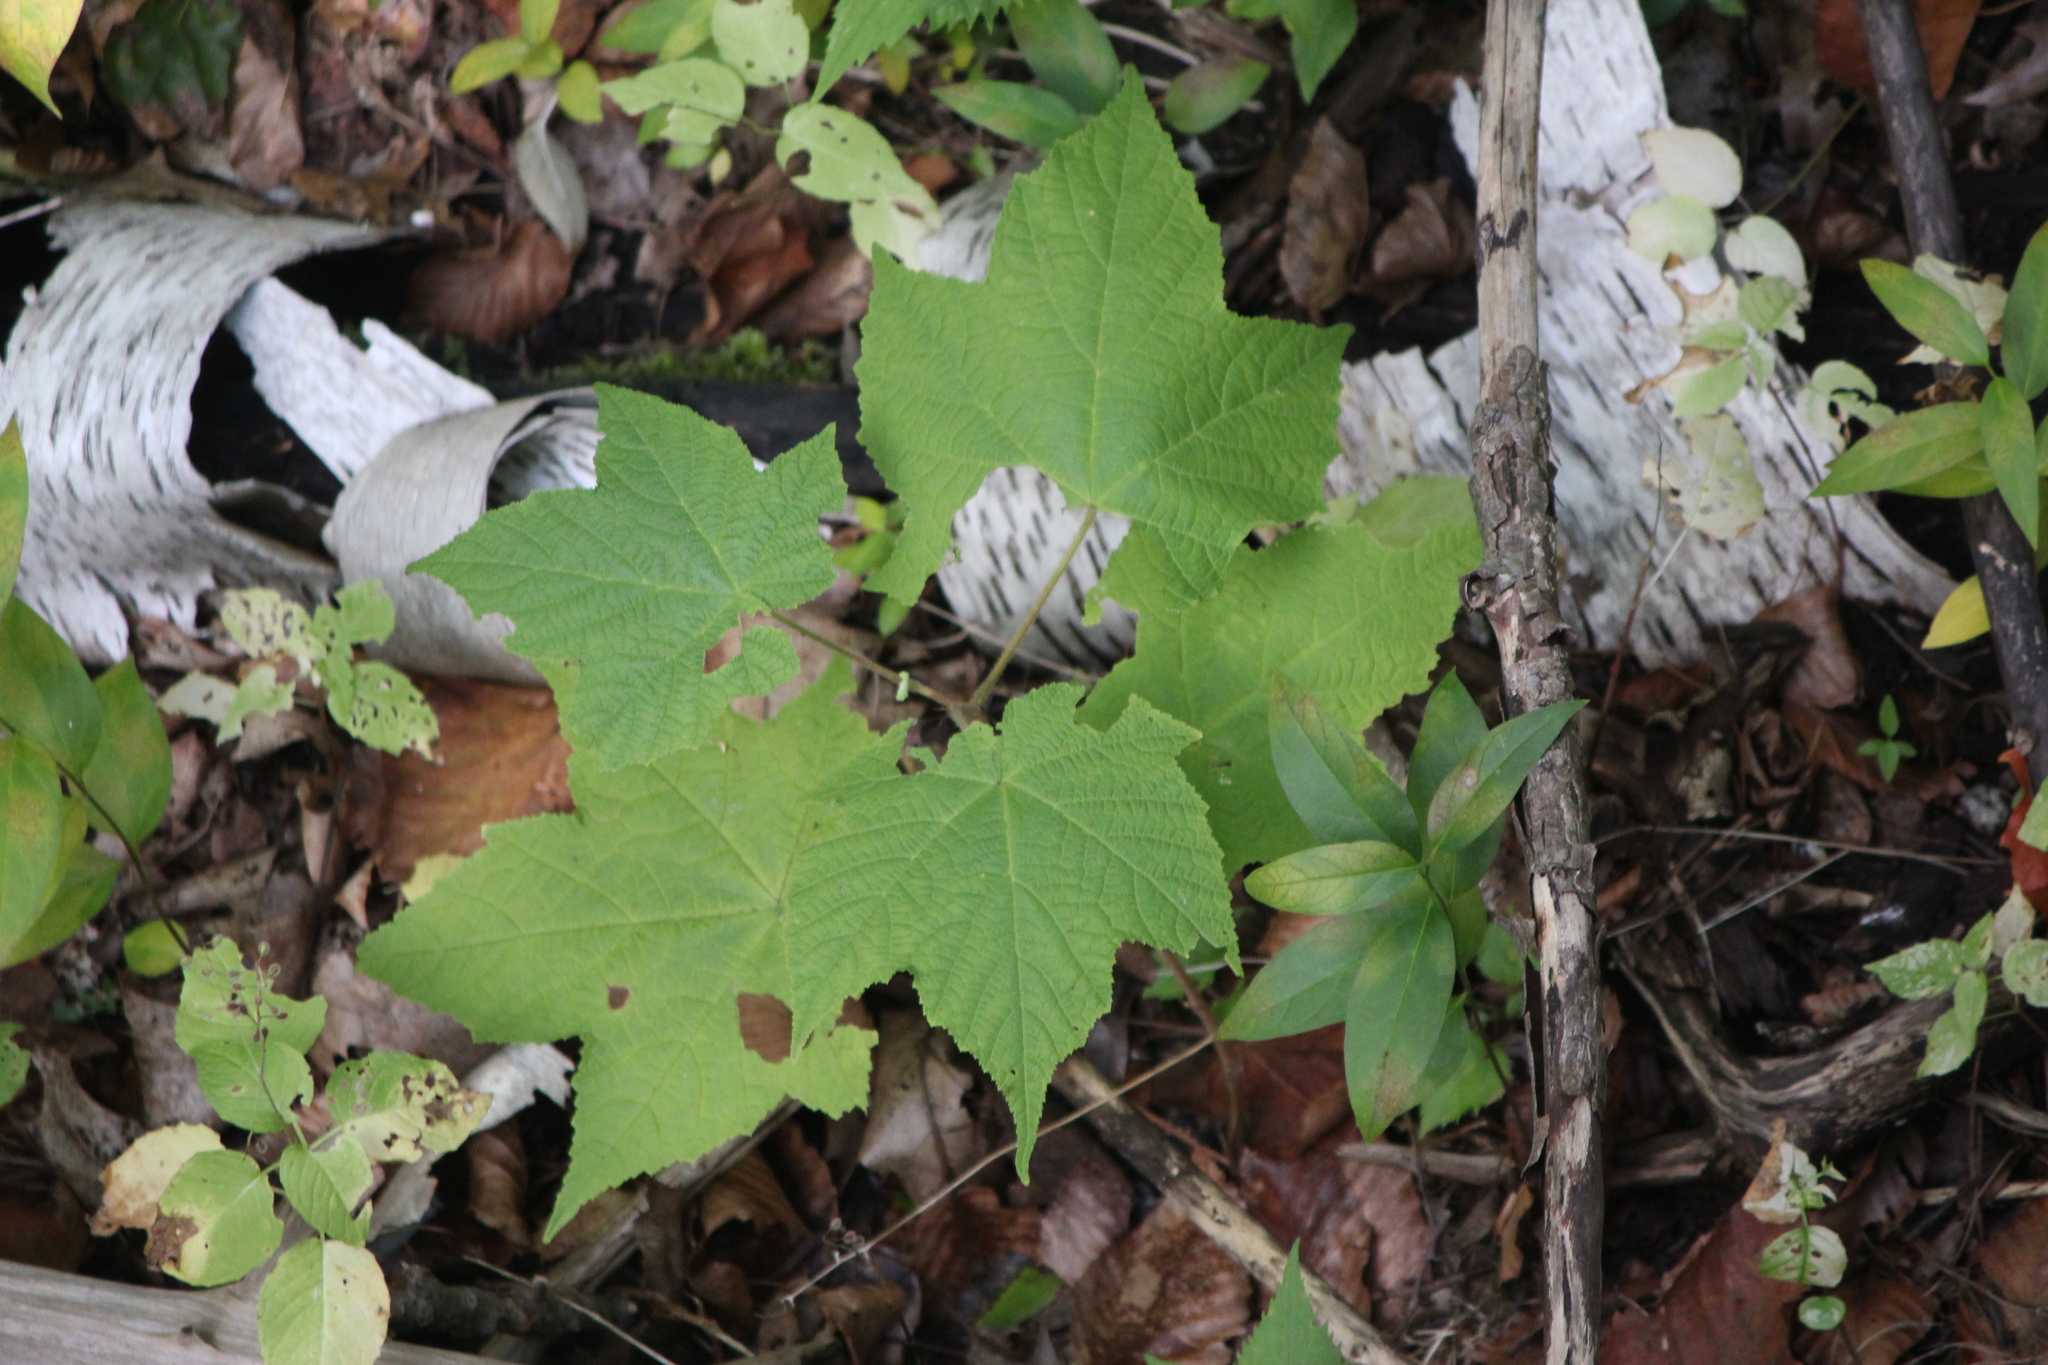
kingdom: Plantae
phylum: Tracheophyta
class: Magnoliopsida
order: Rosales
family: Rosaceae
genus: Rubus
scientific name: Rubus odoratus
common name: Purple-flowered raspberry
